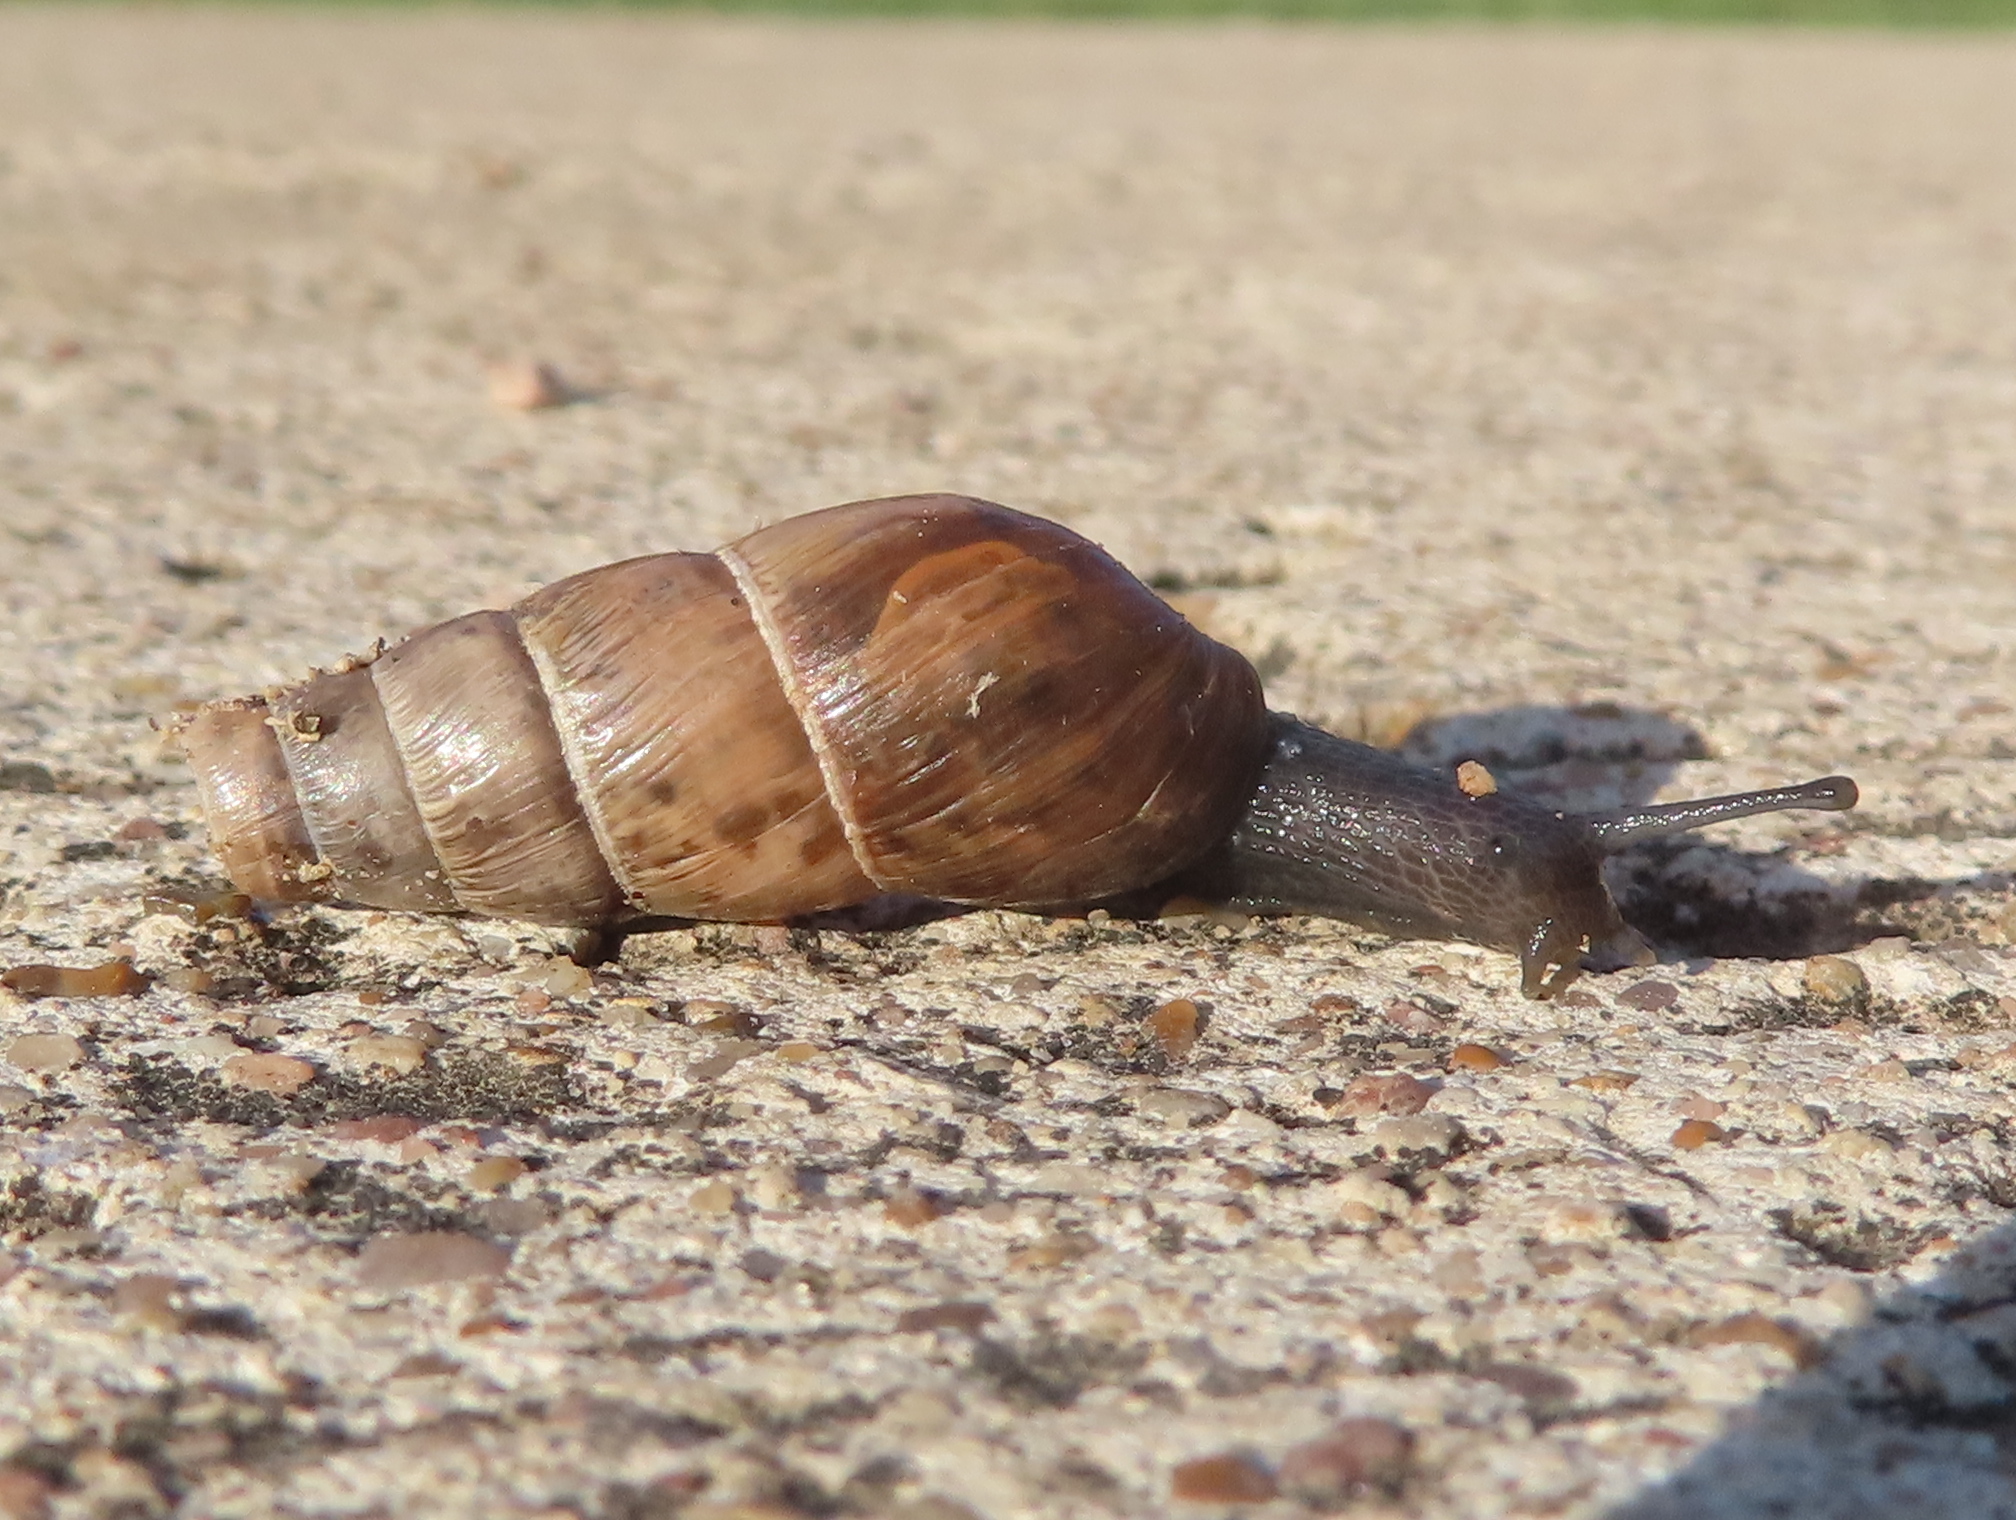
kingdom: Animalia
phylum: Mollusca
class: Gastropoda
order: Stylommatophora
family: Achatinidae
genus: Rumina
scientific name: Rumina decollata
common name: Decollate snail
